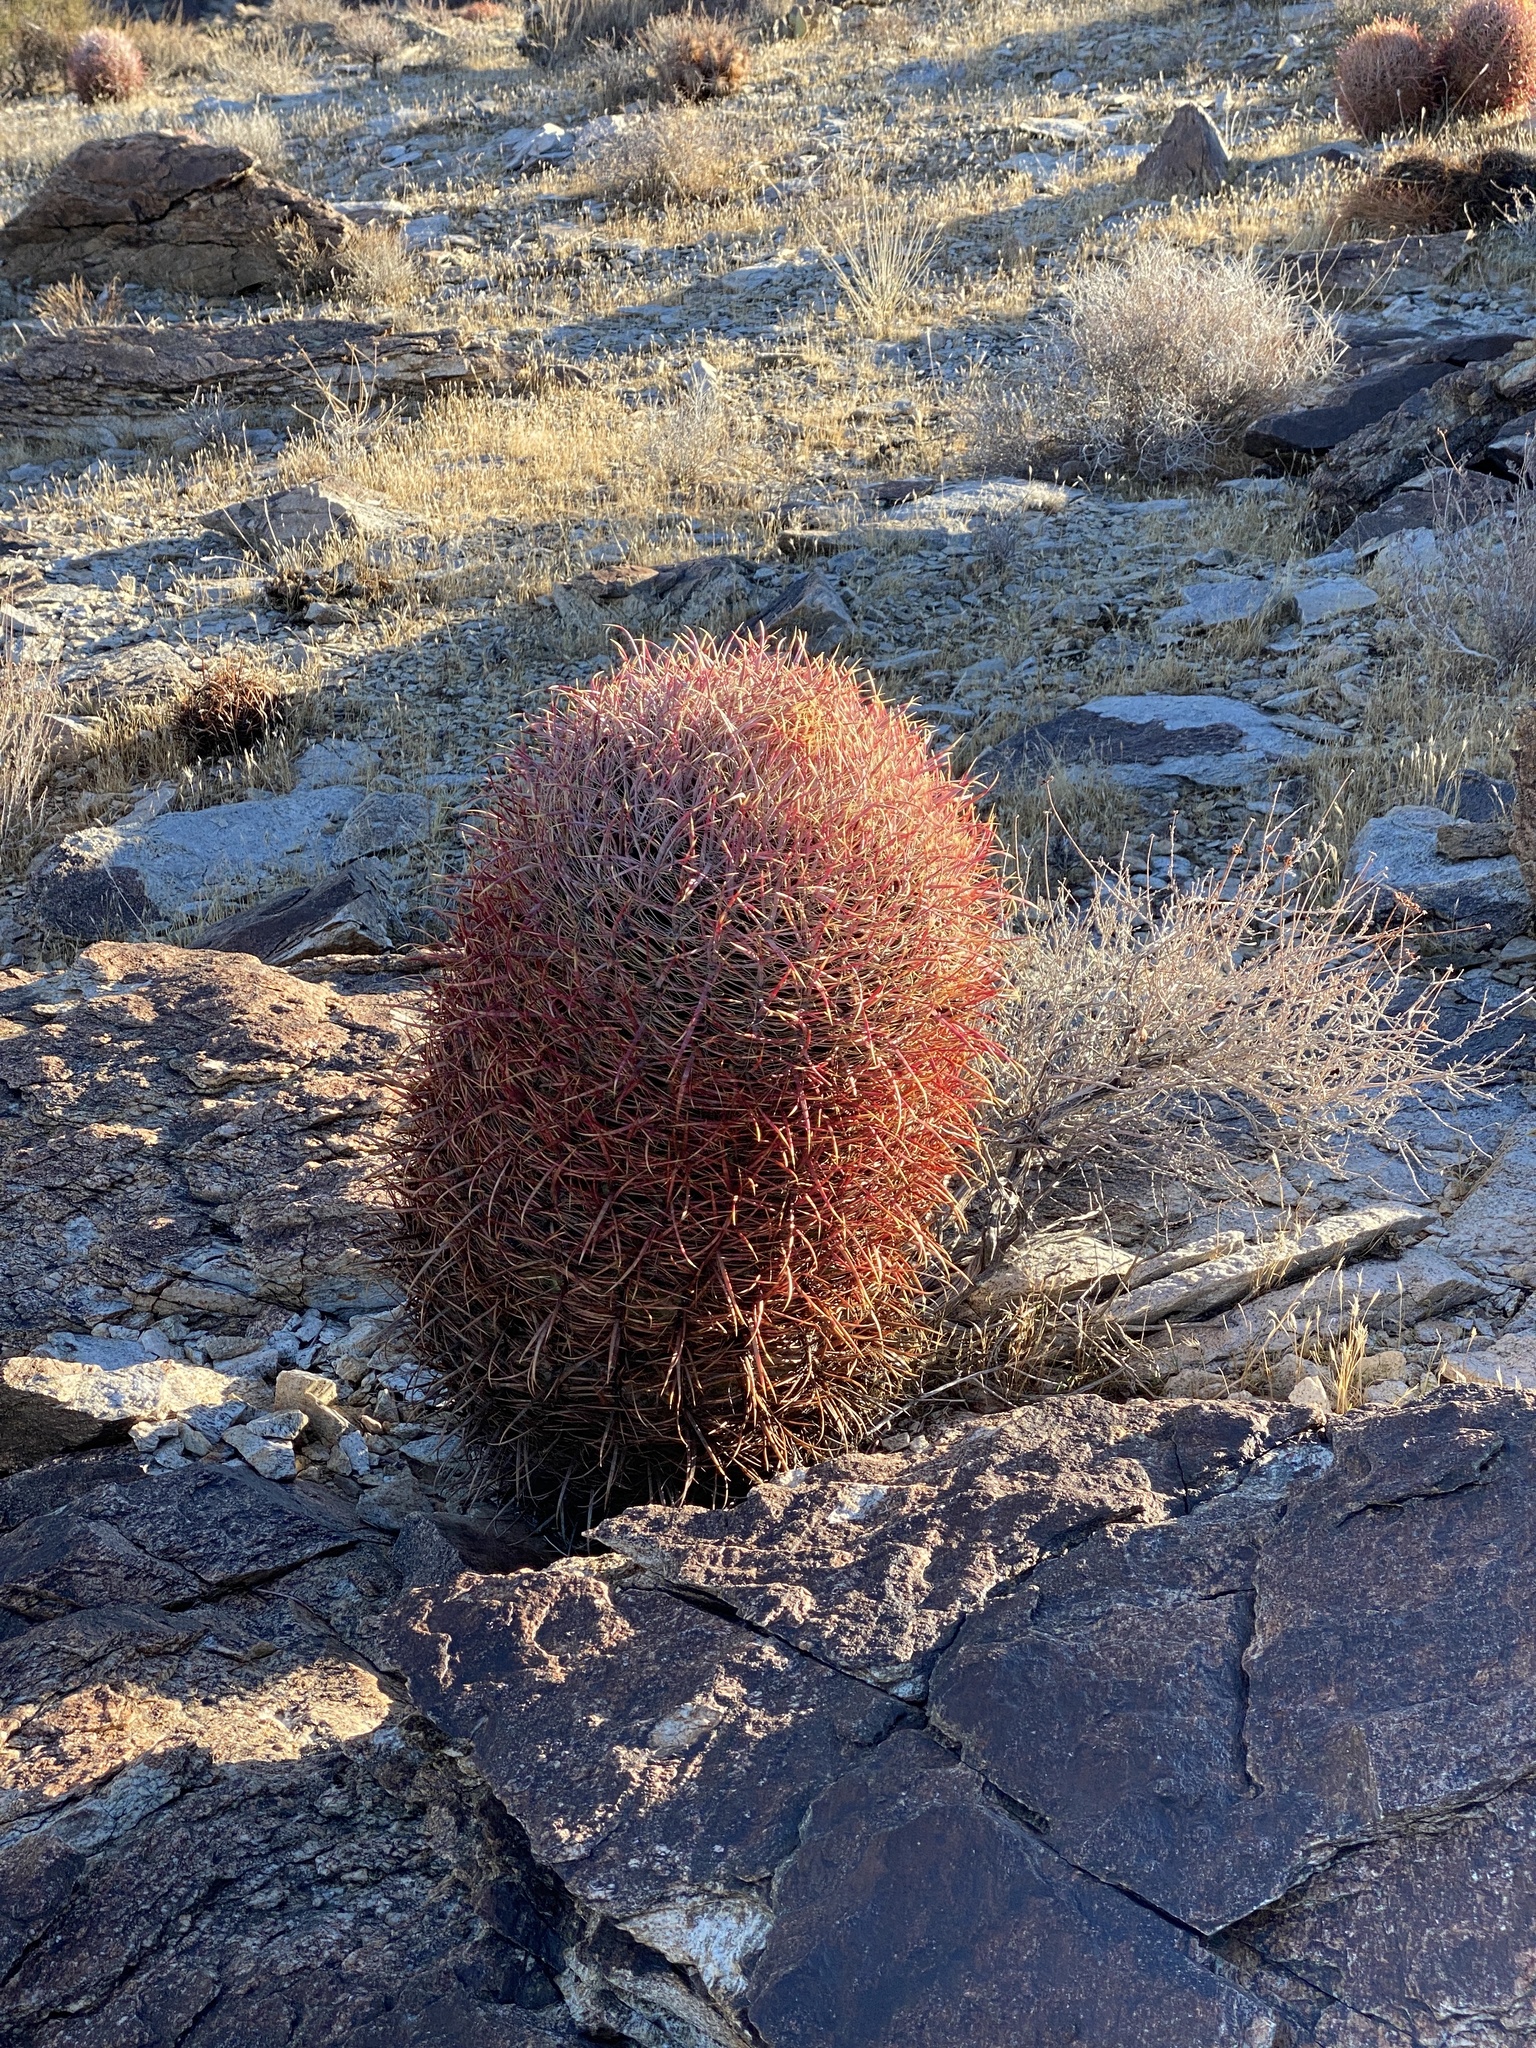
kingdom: Plantae
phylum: Tracheophyta
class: Magnoliopsida
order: Caryophyllales
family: Cactaceae
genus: Ferocactus
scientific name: Ferocactus cylindraceus
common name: California barrel cactus
